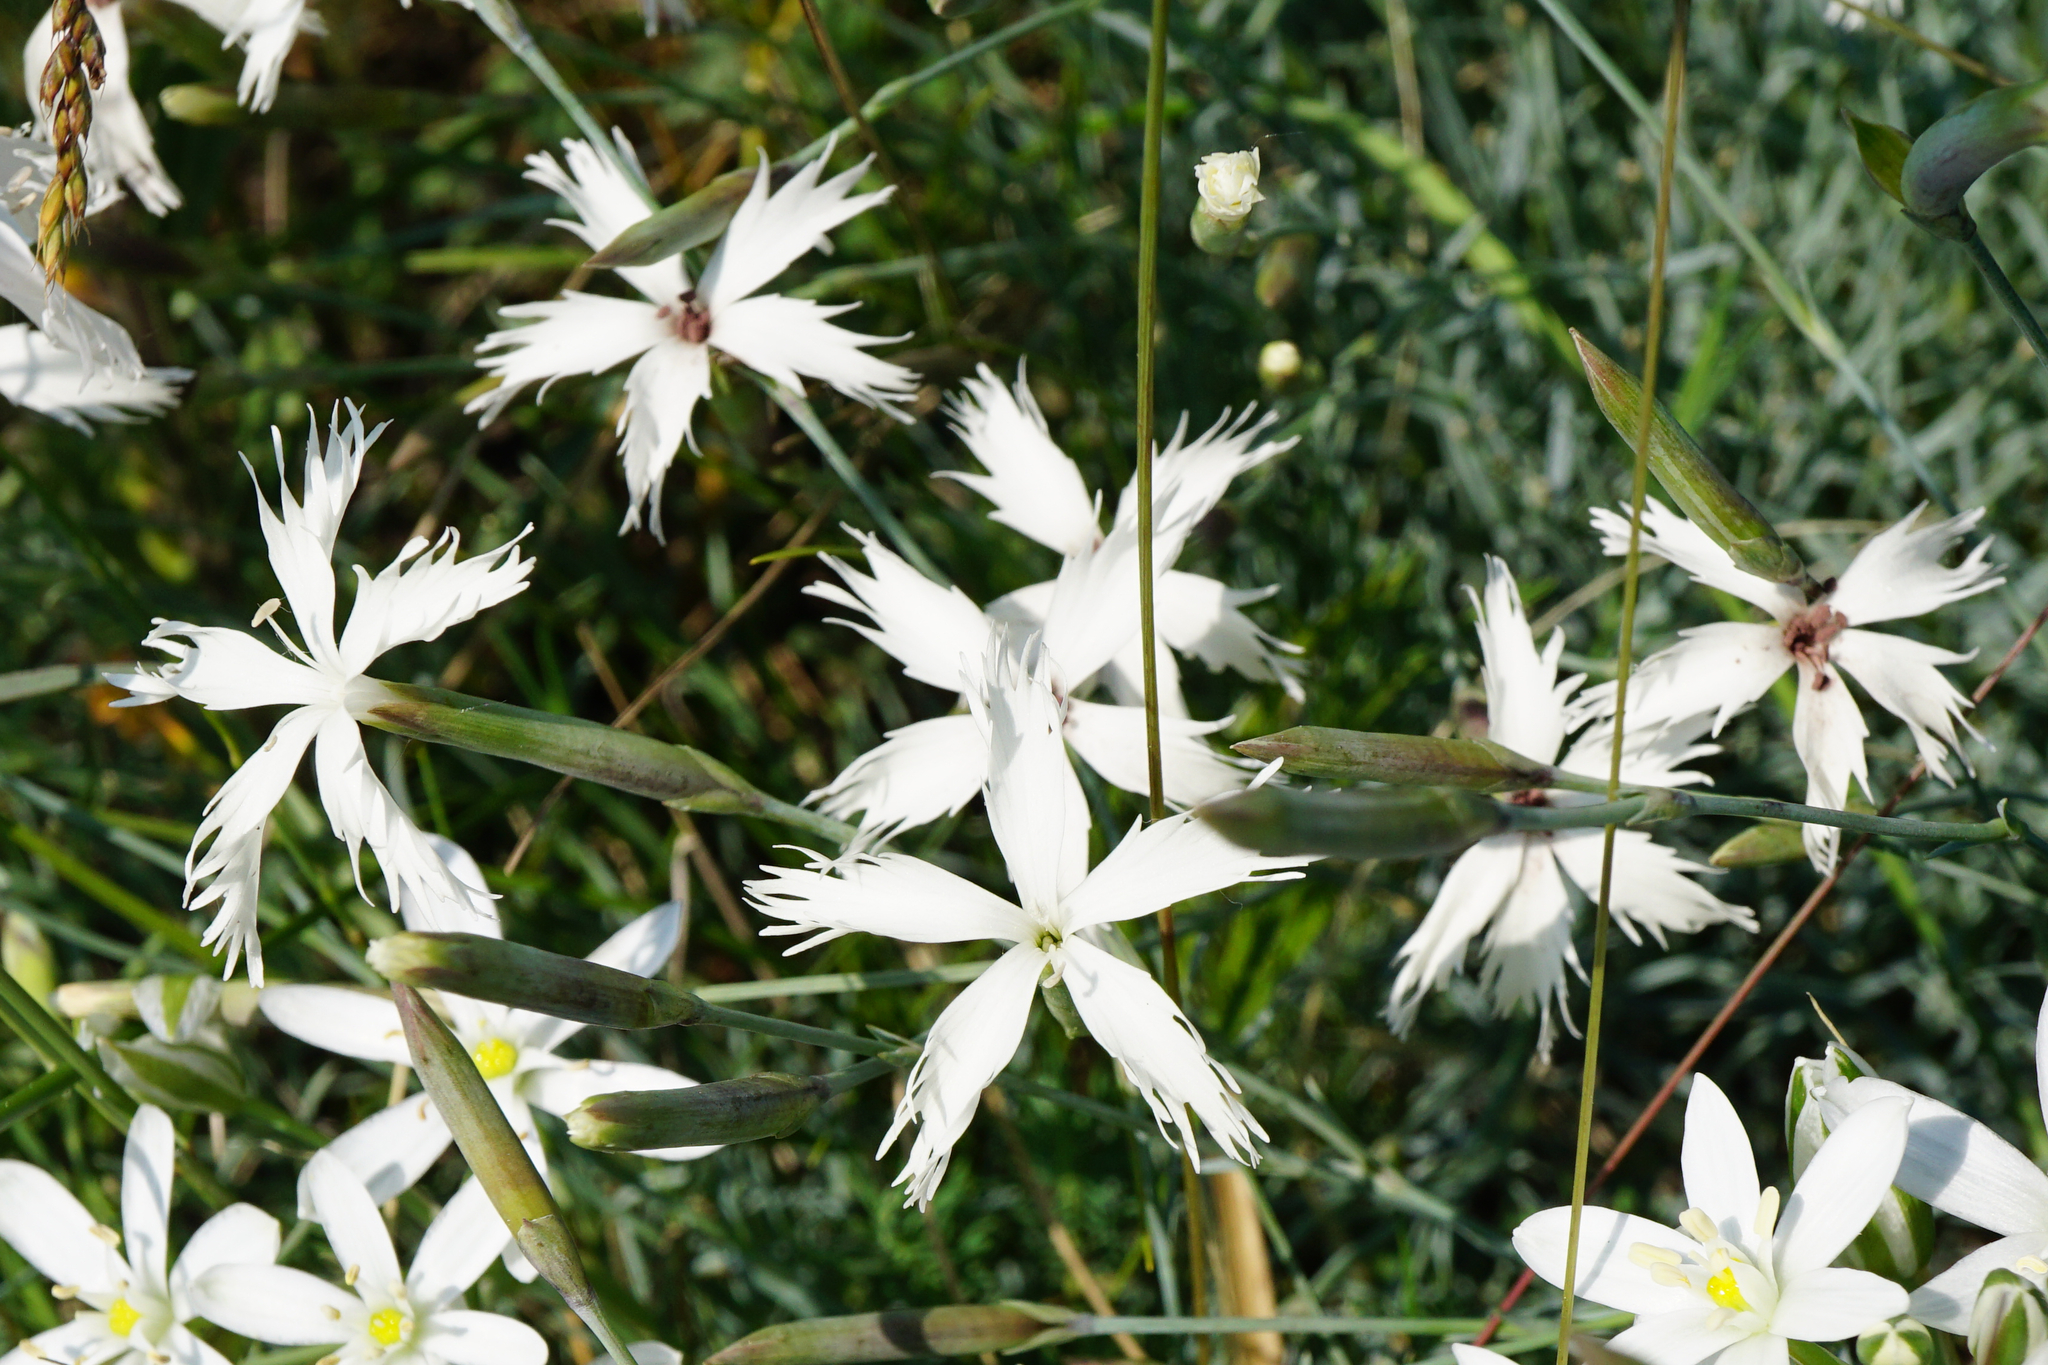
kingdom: Plantae
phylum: Tracheophyta
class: Magnoliopsida
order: Caryophyllales
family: Caryophyllaceae
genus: Dianthus
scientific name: Dianthus praecox
